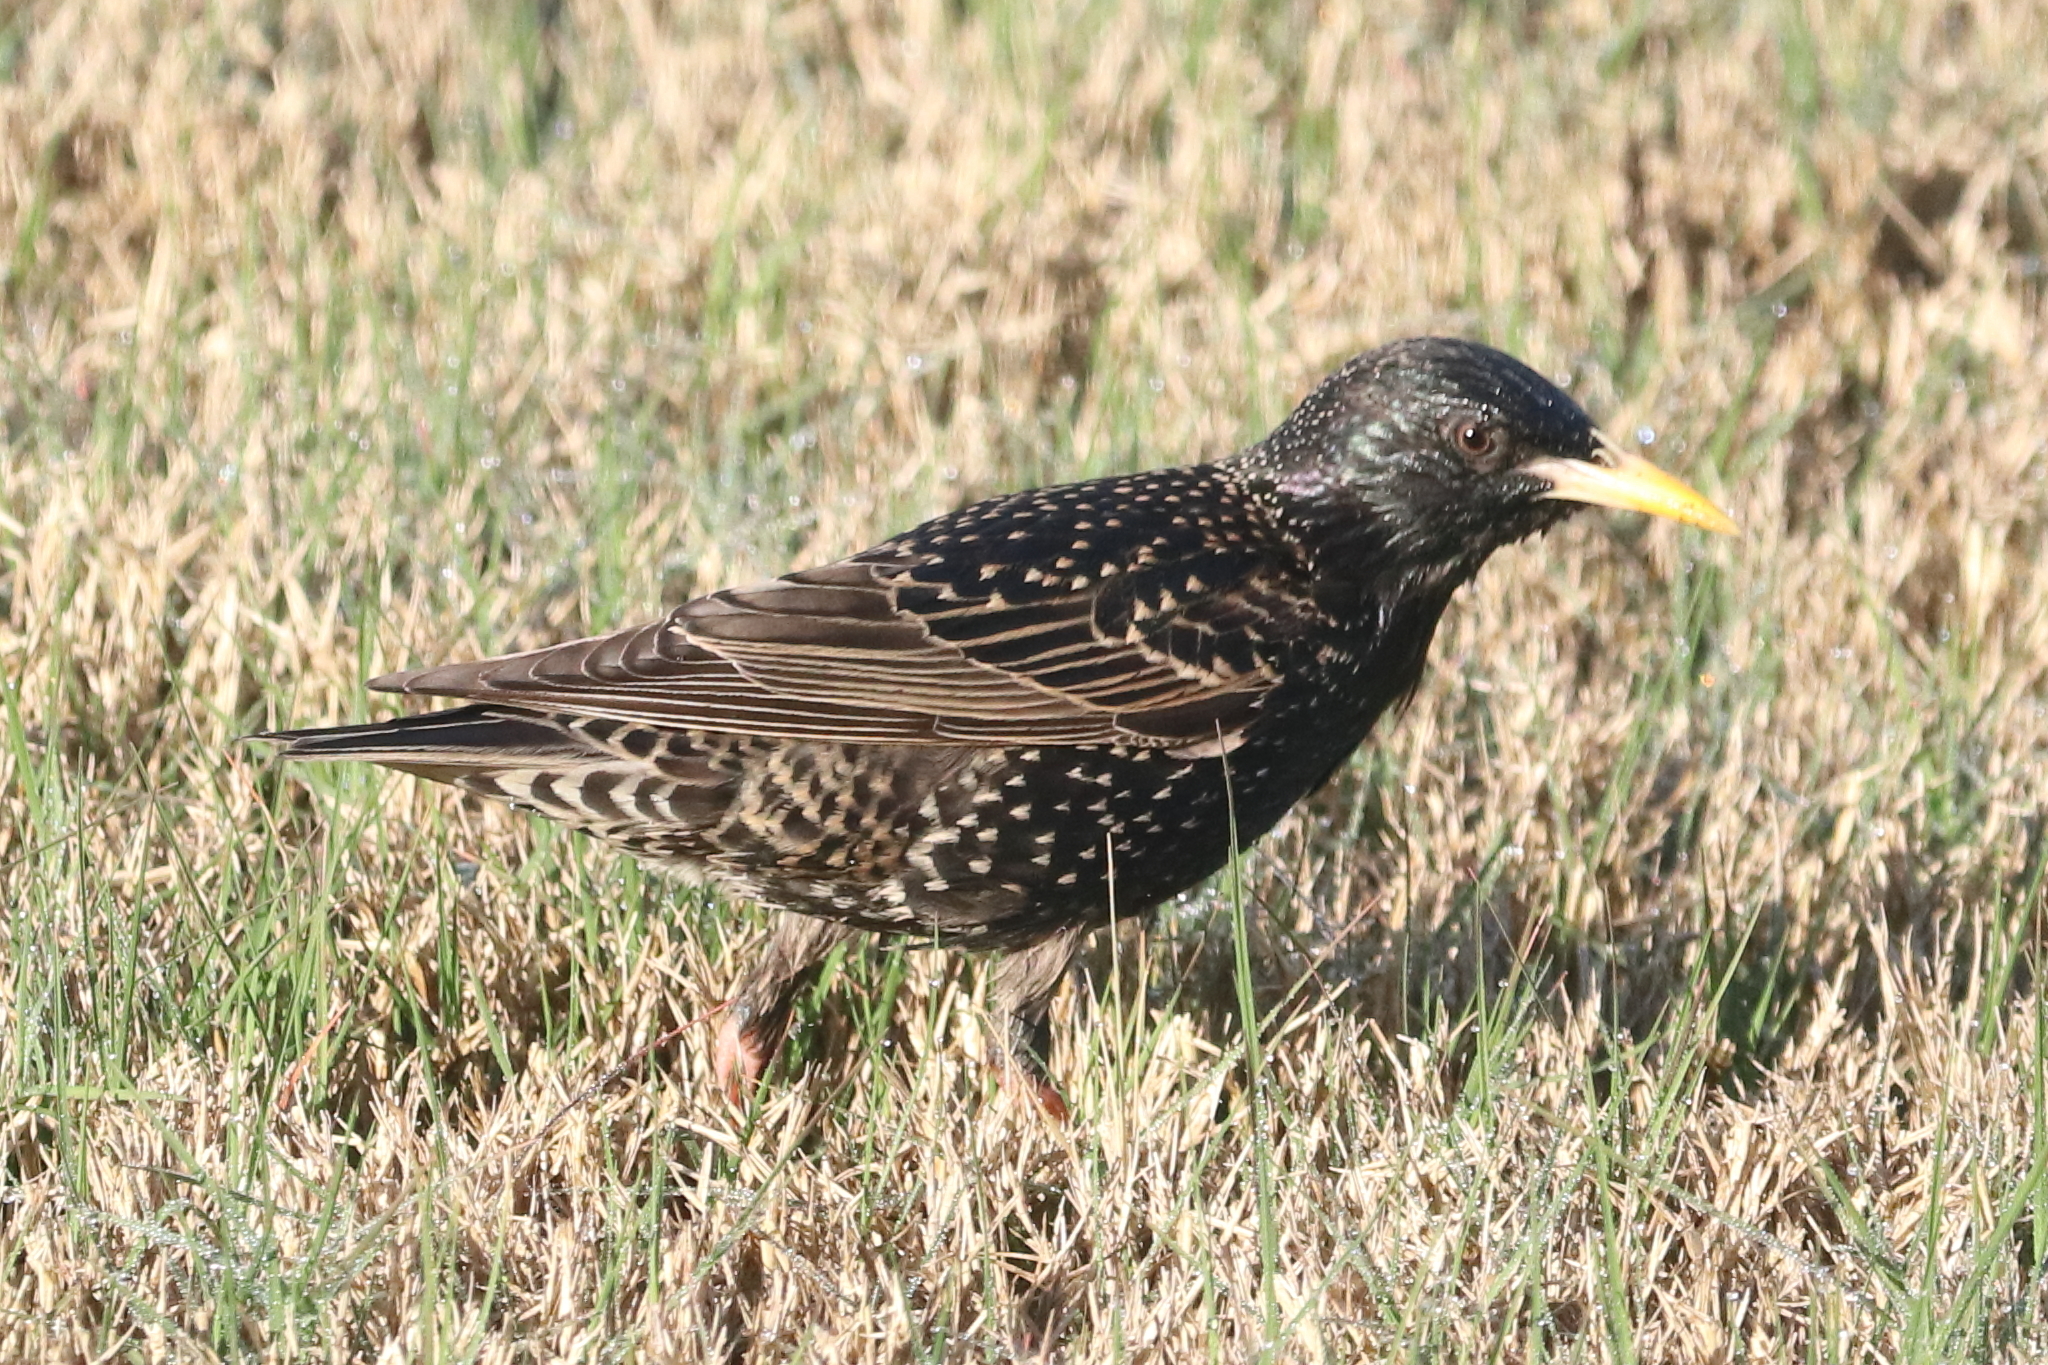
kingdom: Animalia
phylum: Chordata
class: Aves
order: Passeriformes
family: Sturnidae
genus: Sturnus
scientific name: Sturnus vulgaris
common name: Common starling
